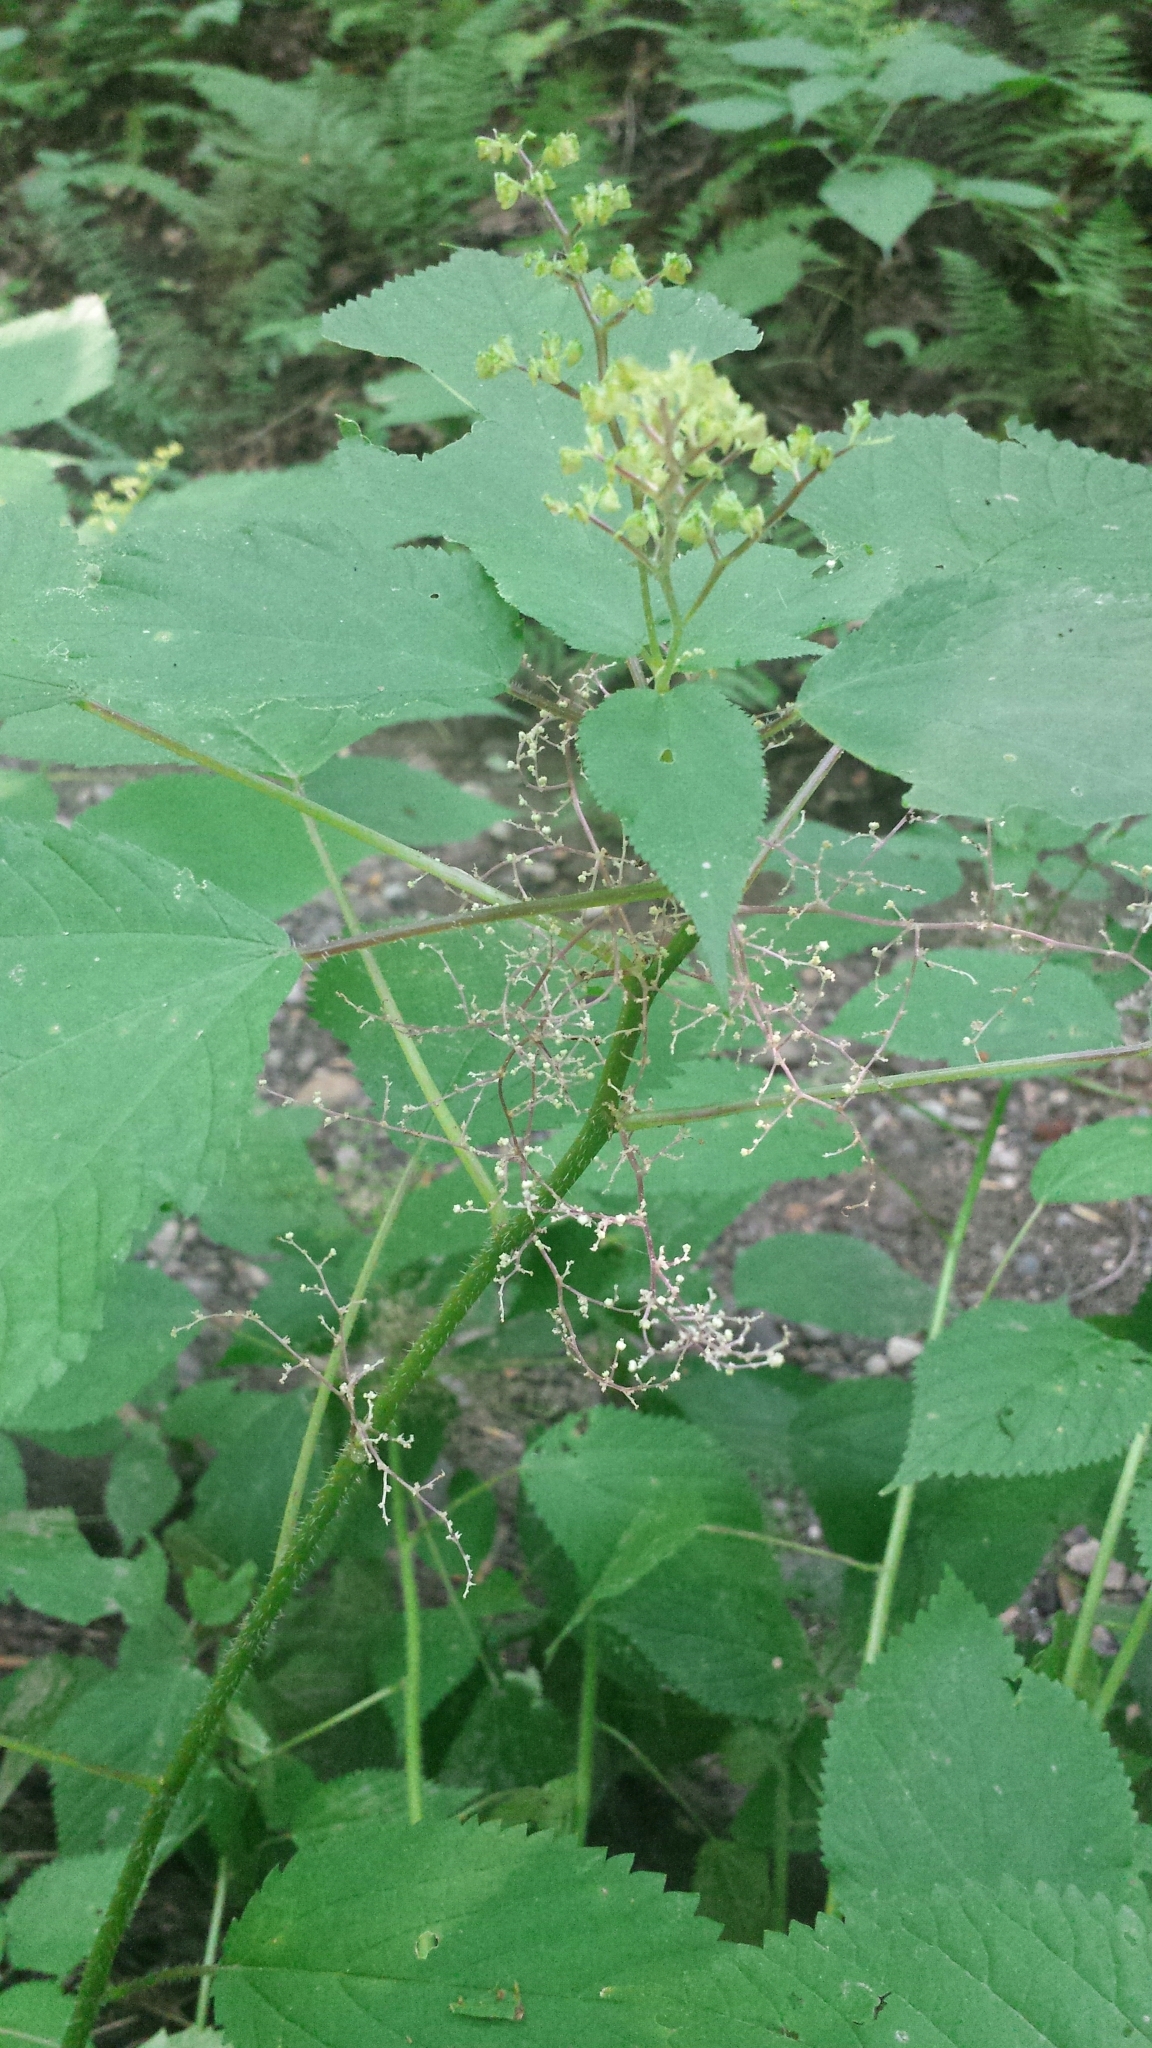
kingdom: Plantae
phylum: Tracheophyta
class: Magnoliopsida
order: Rosales
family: Urticaceae
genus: Laportea
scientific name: Laportea canadensis
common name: Canada nettle
